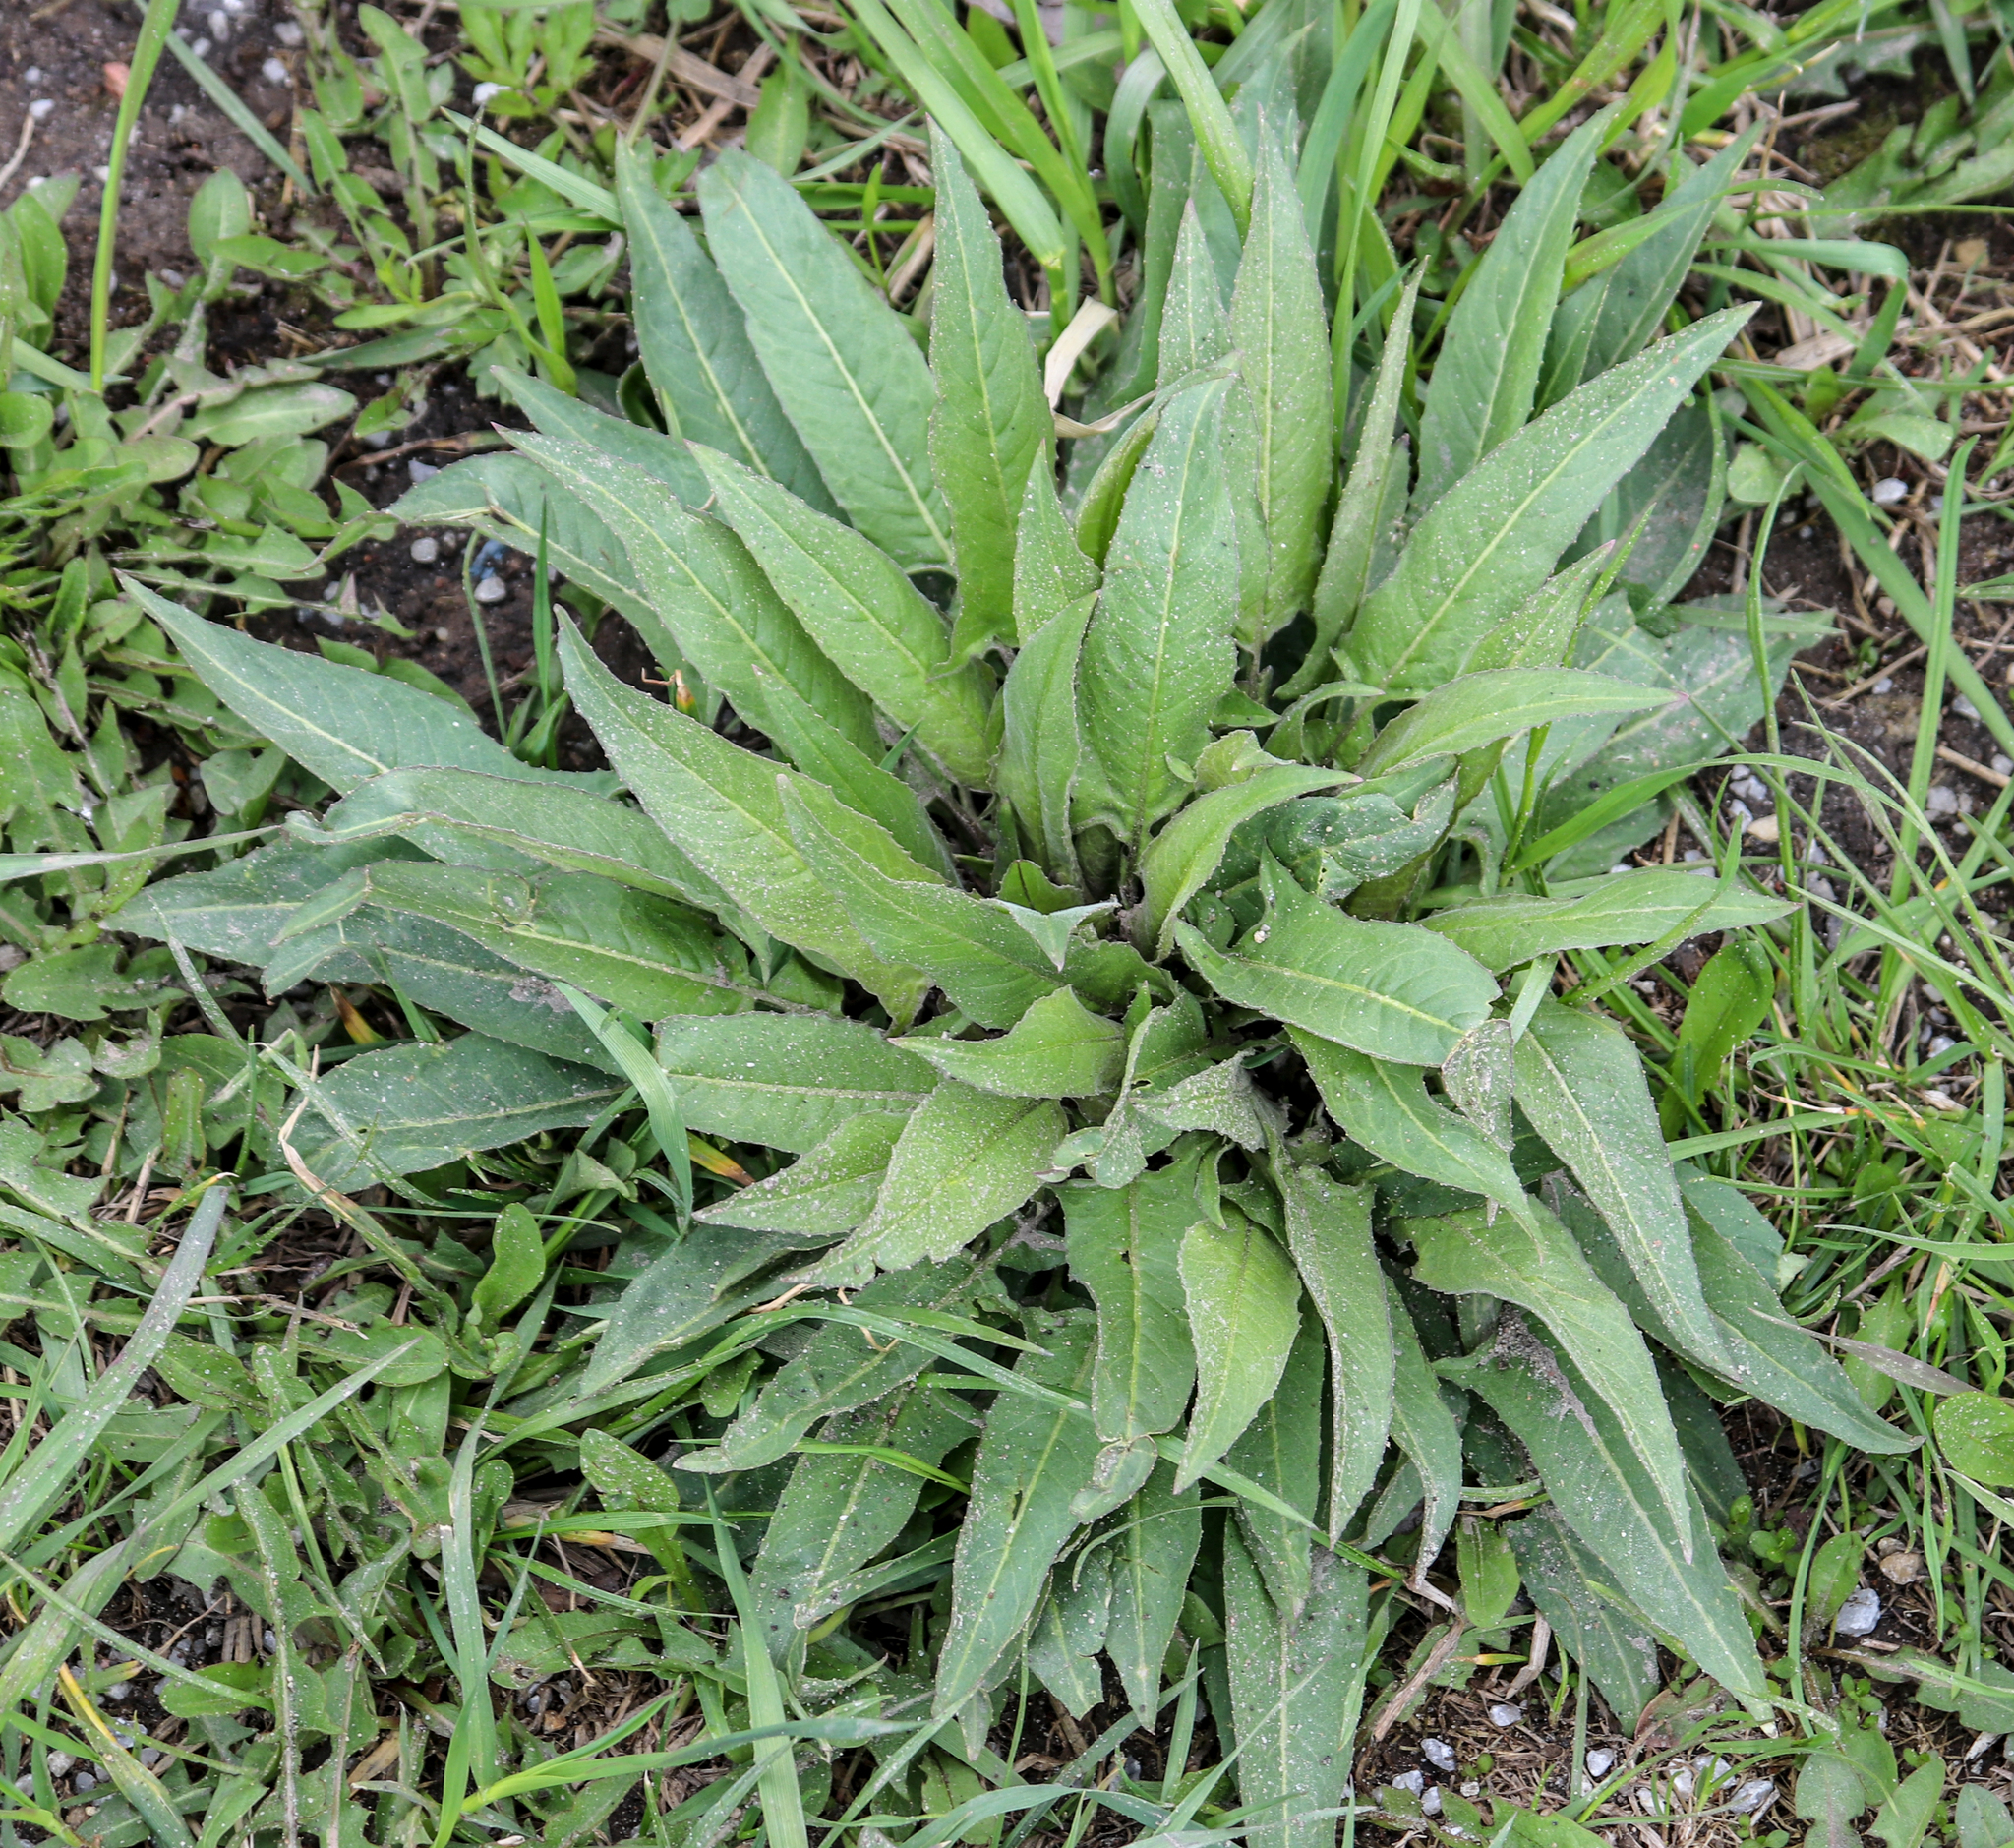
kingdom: Plantae
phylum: Tracheophyta
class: Magnoliopsida
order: Brassicales
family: Brassicaceae
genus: Bunias
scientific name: Bunias orientalis
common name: Warty-cabbage
